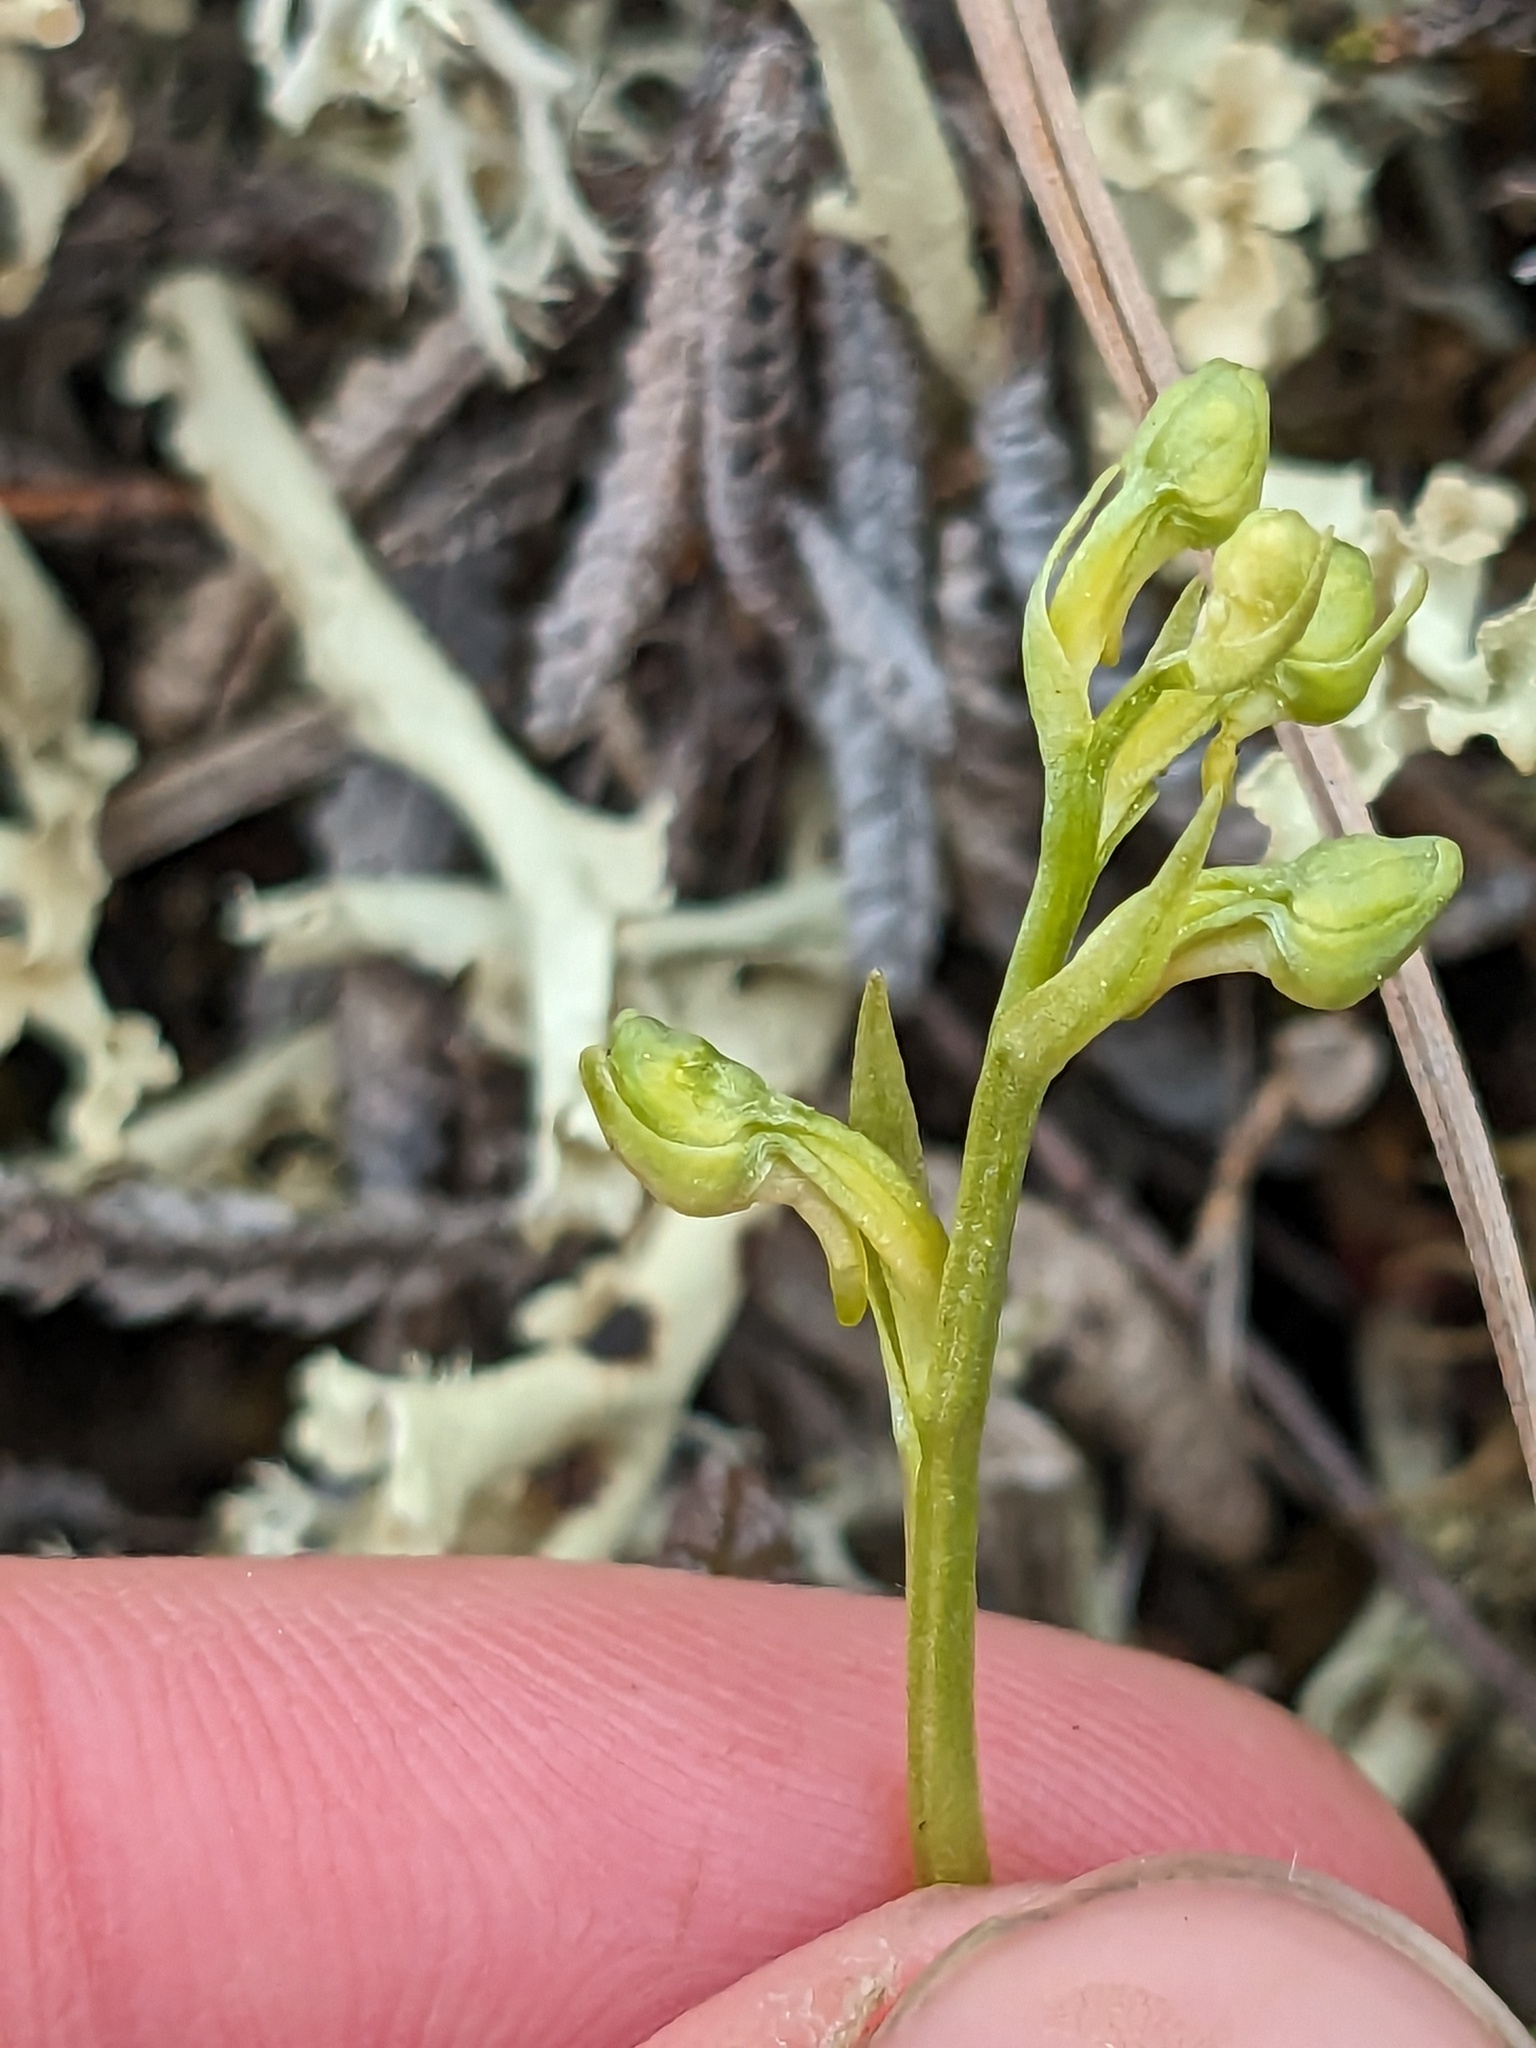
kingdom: Plantae
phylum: Tracheophyta
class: Liliopsida
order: Asparagales
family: Orchidaceae
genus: Platanthera
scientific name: Platanthera obtusata
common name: Blunt bog orchid
